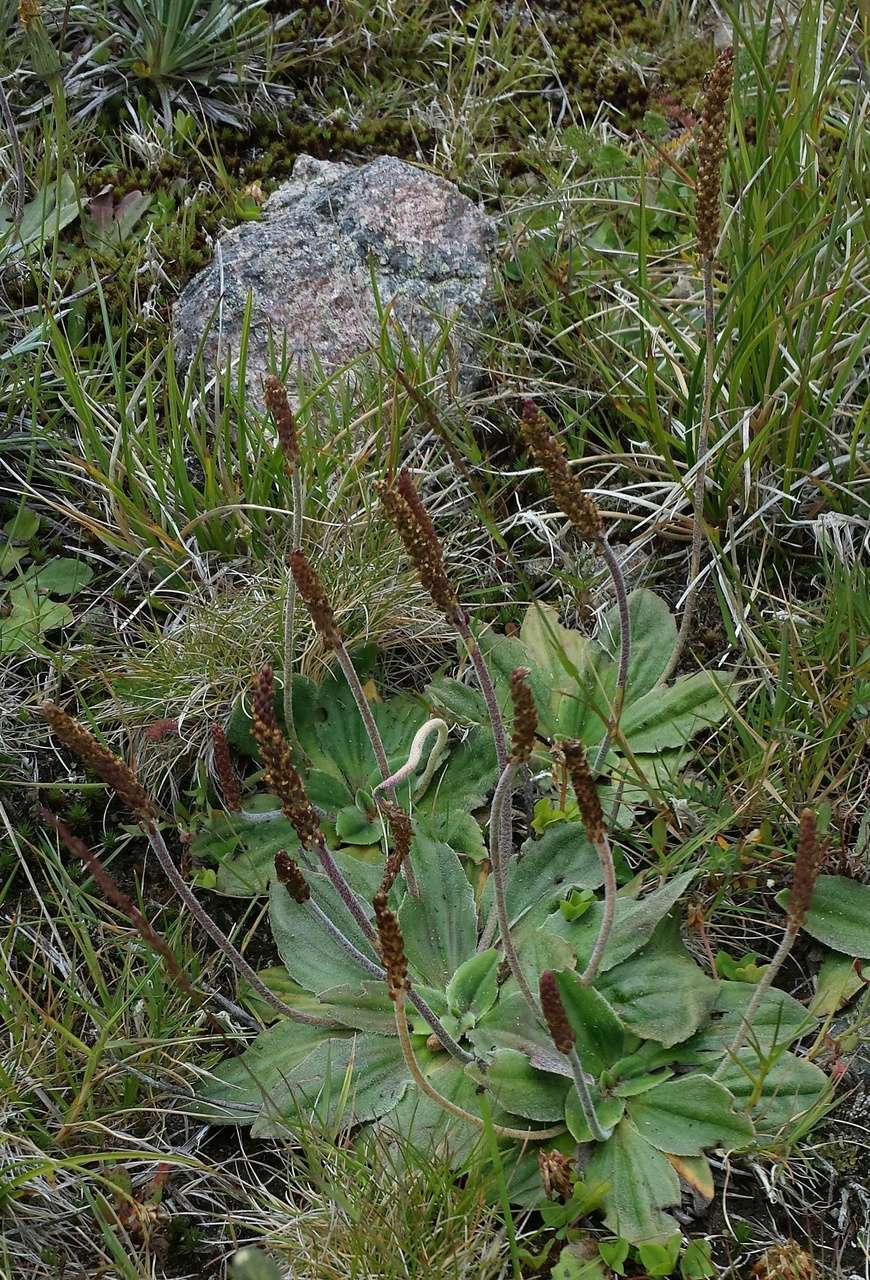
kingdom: Plantae
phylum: Tracheophyta
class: Magnoliopsida
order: Lamiales
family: Plantaginaceae
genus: Plantago
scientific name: Plantago euryphylla
